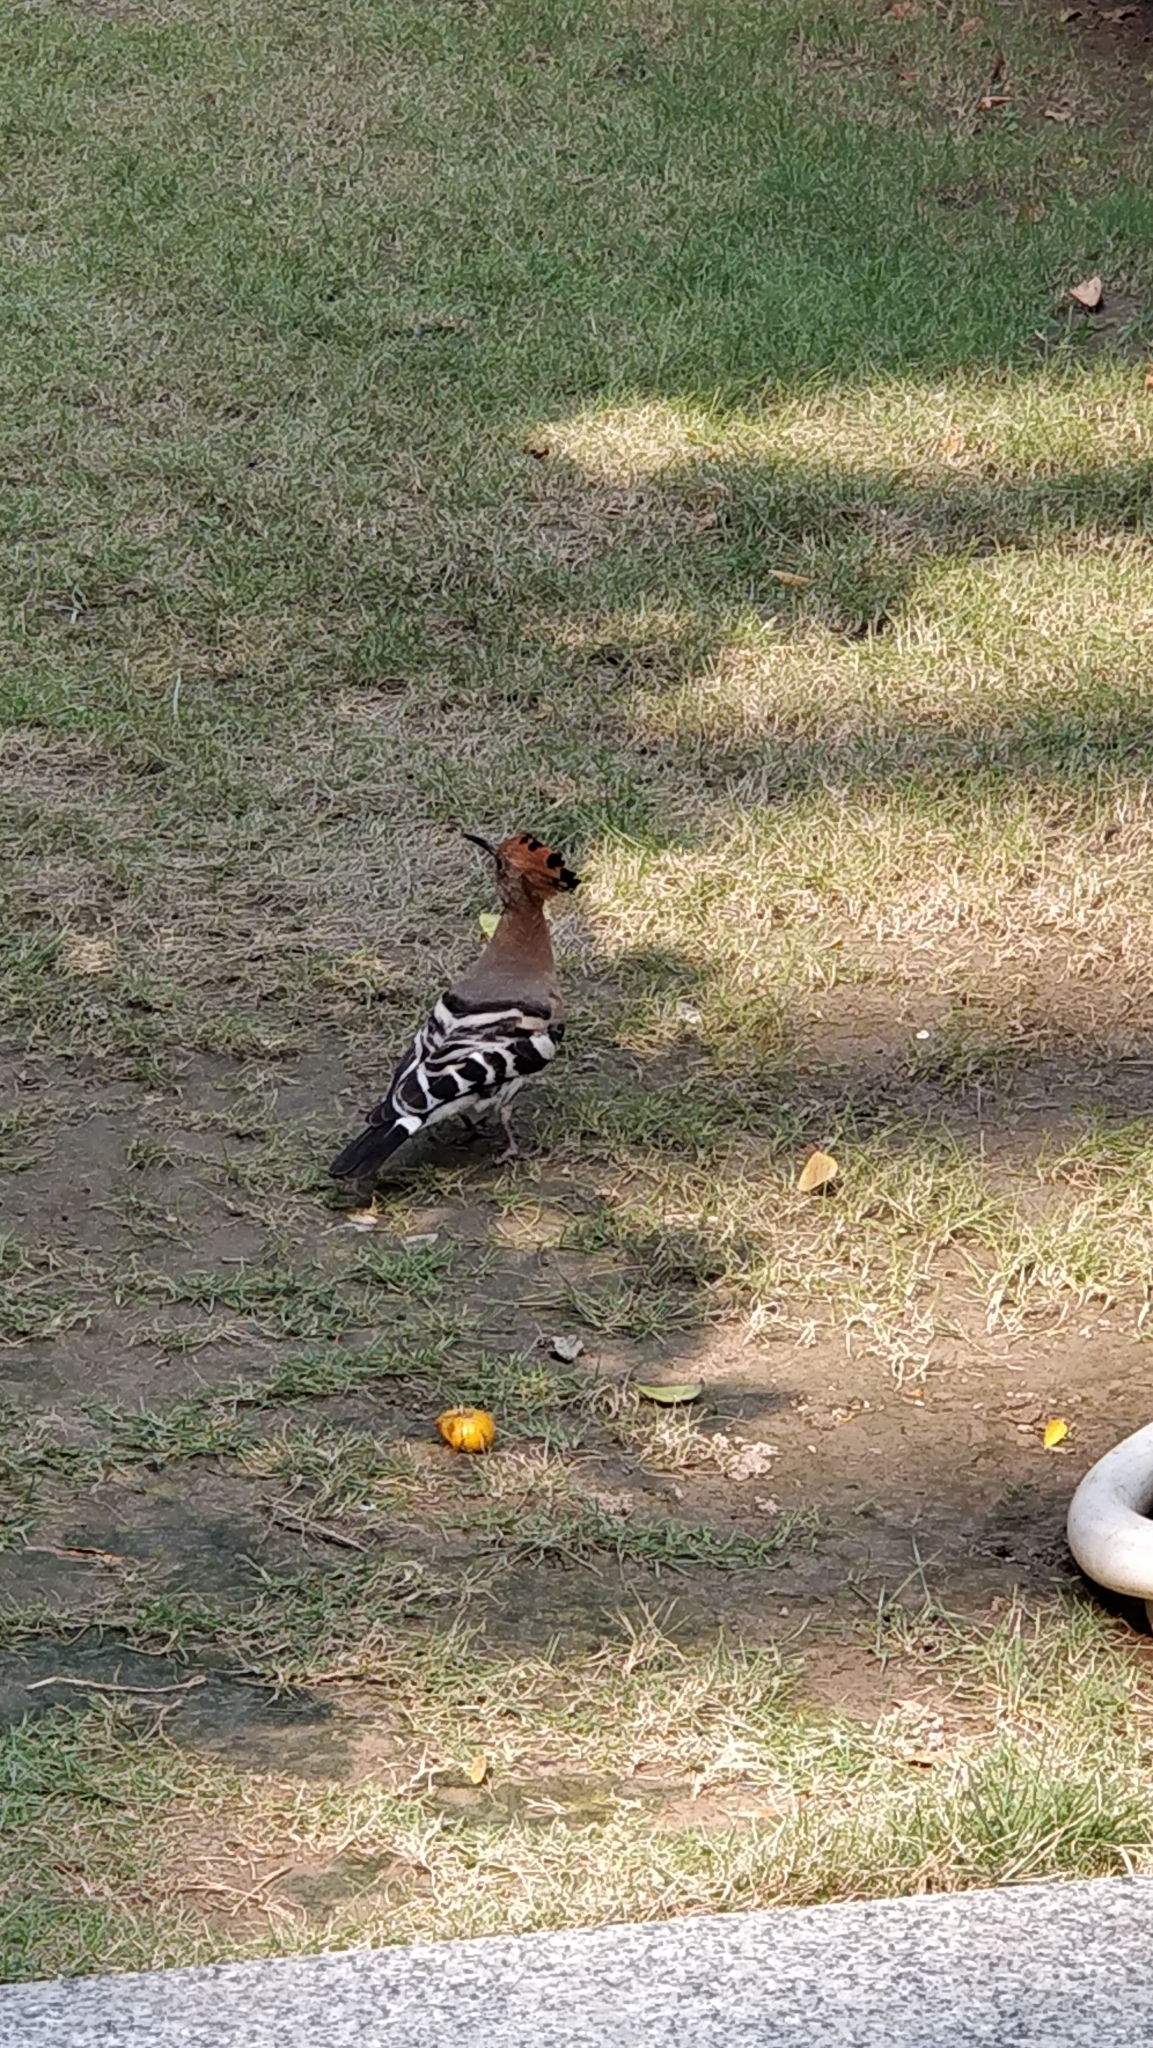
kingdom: Animalia
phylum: Chordata
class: Aves
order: Bucerotiformes
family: Upupidae
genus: Upupa
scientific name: Upupa epops
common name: Eurasian hoopoe
